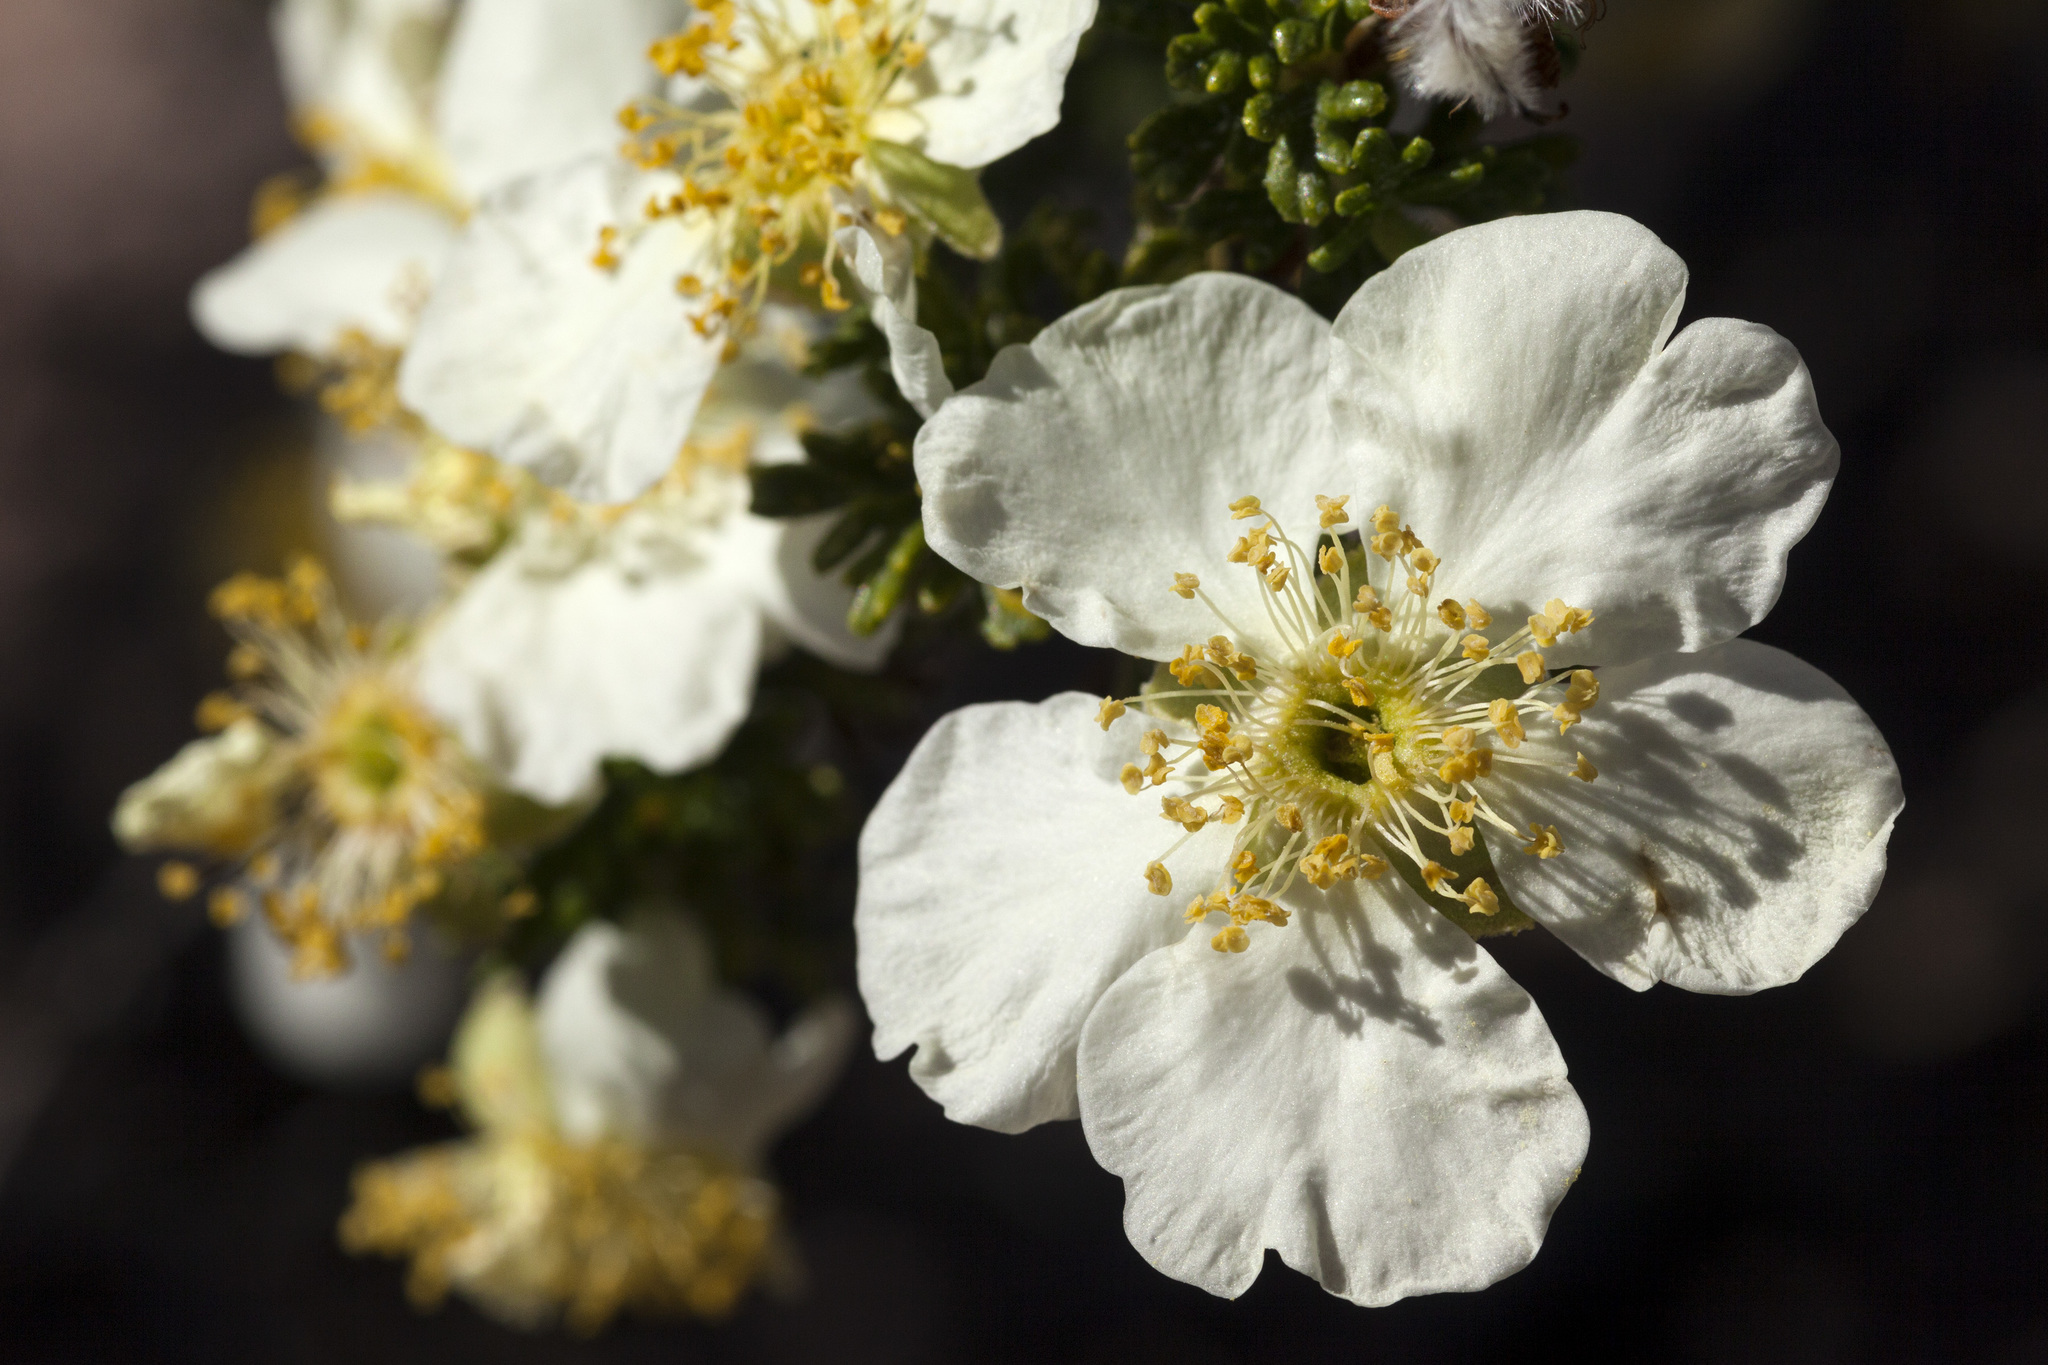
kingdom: Plantae
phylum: Tracheophyta
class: Magnoliopsida
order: Rosales
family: Rosaceae
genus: Purshia
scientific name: Purshia stansburiana
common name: Stansbury's cliffrose
